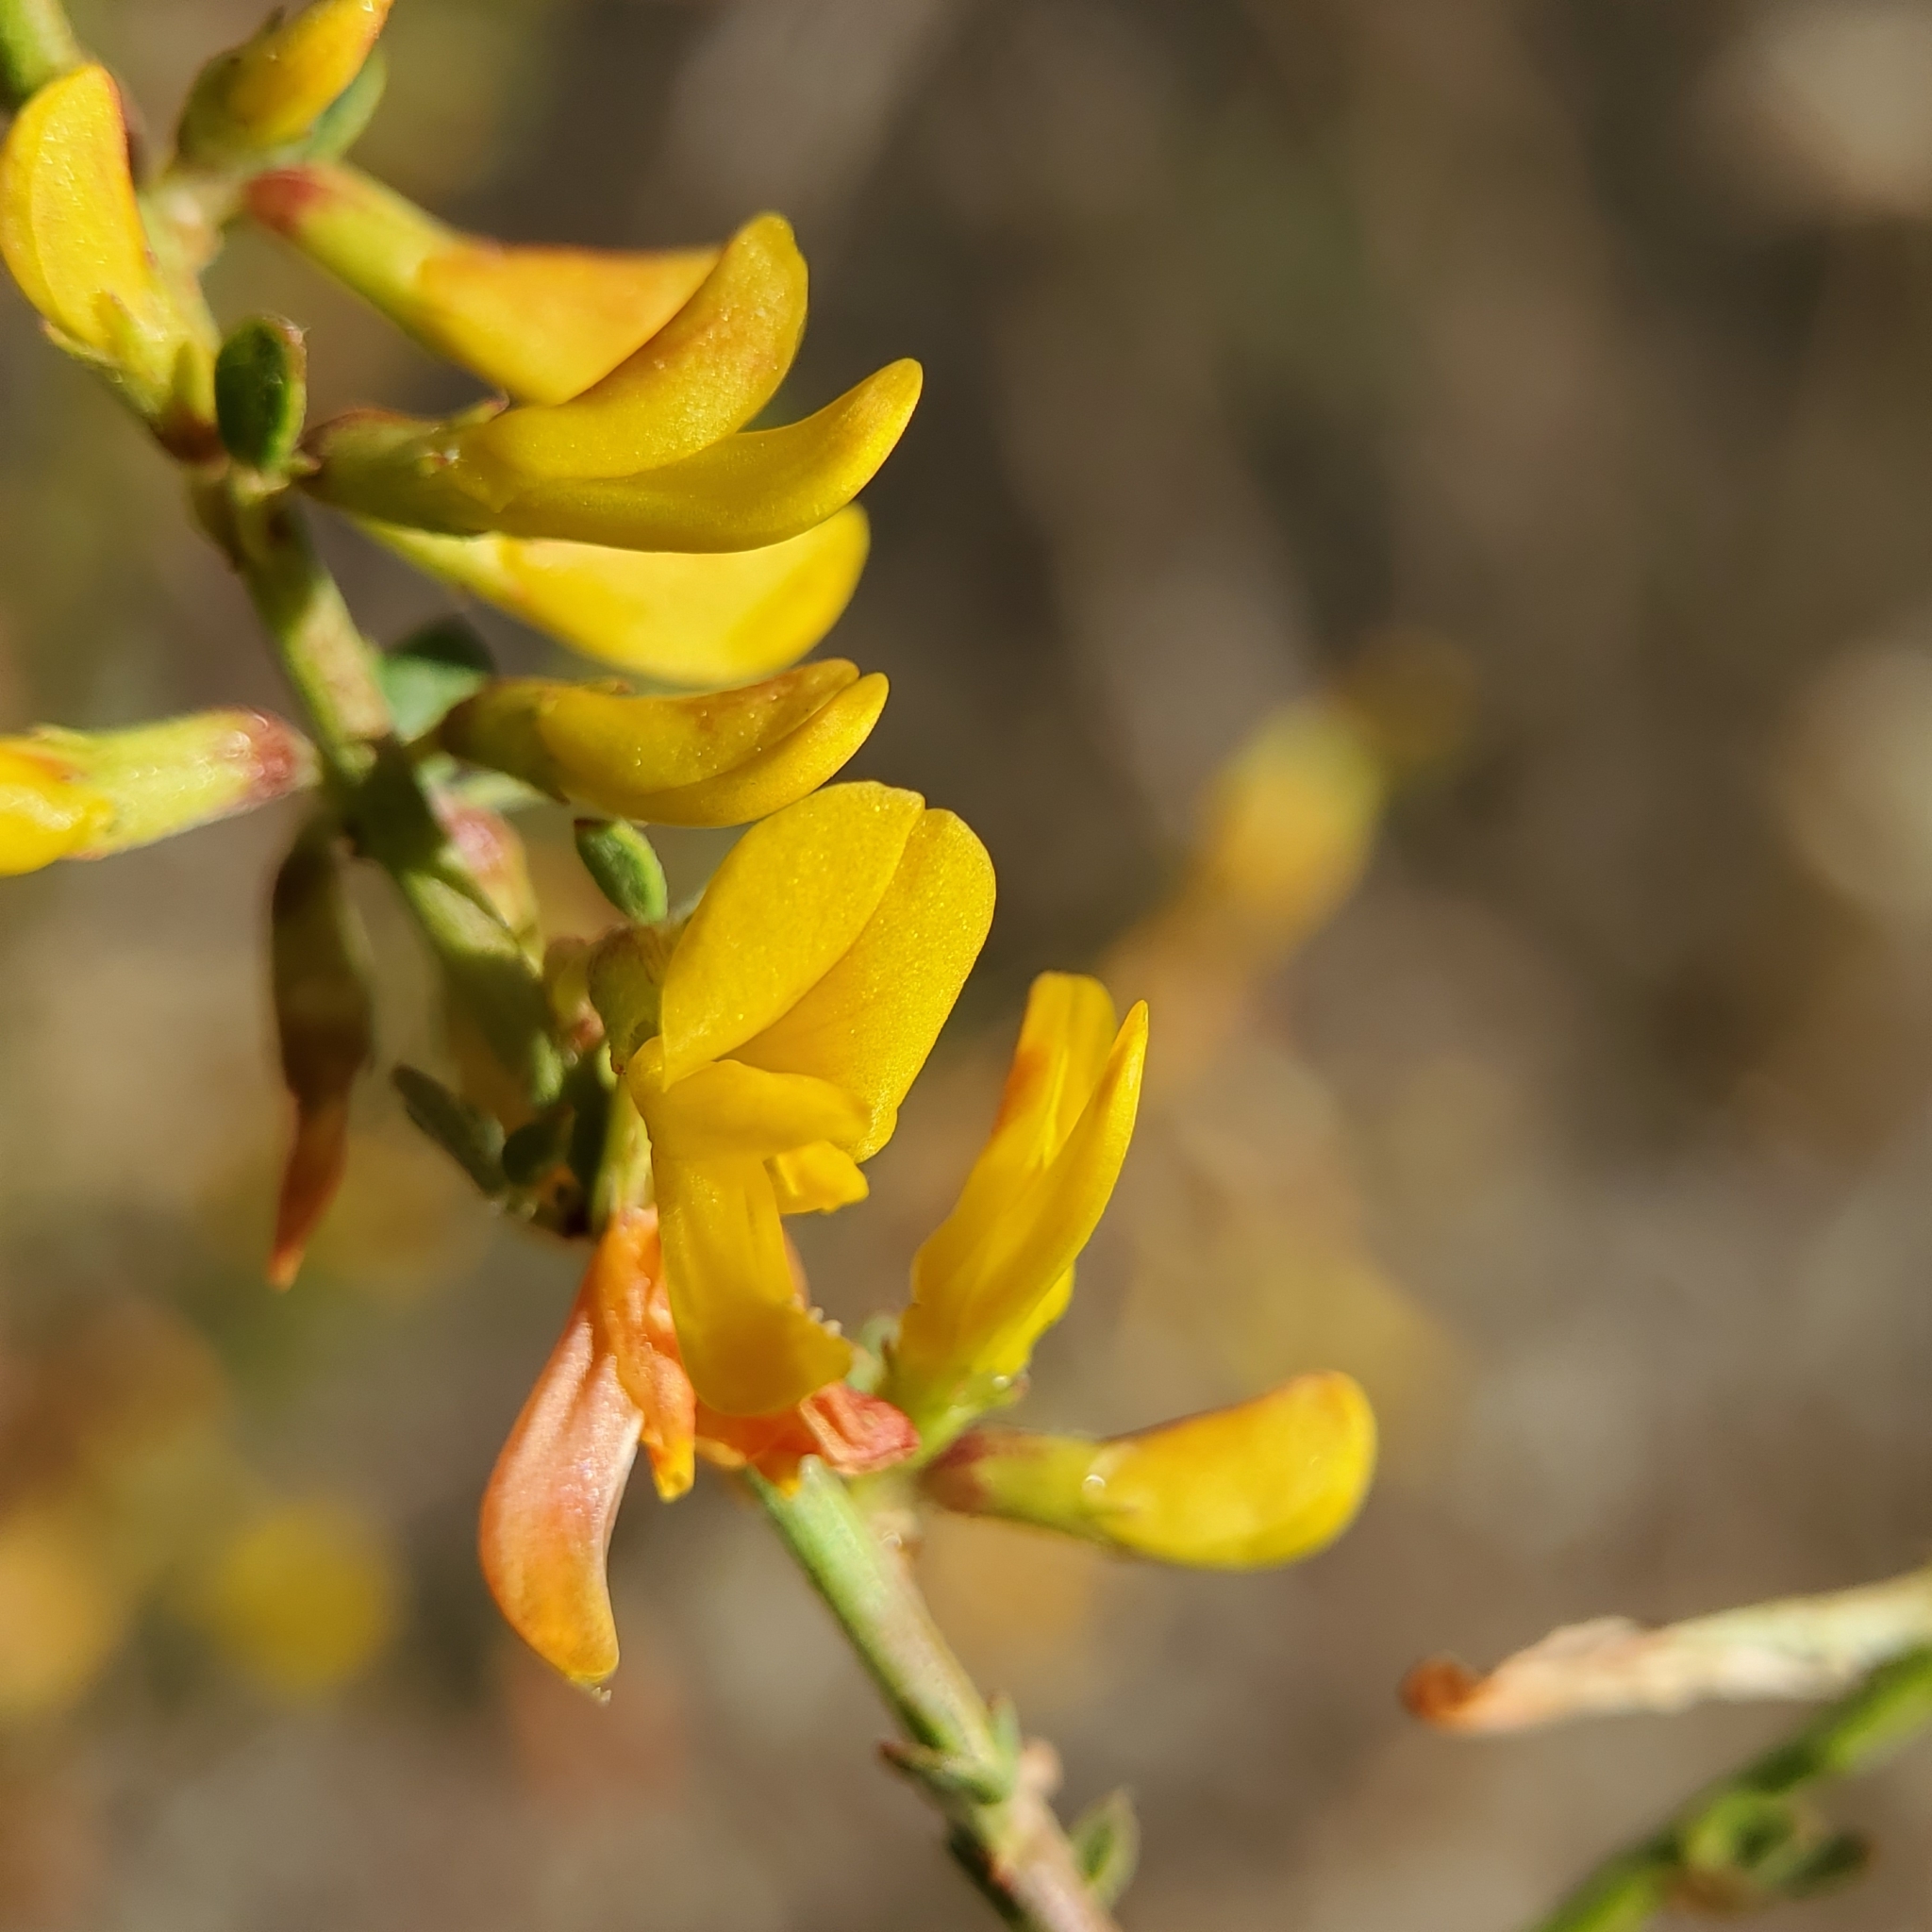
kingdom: Plantae
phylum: Tracheophyta
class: Magnoliopsida
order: Fabales
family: Fabaceae
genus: Acmispon
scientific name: Acmispon glaber
